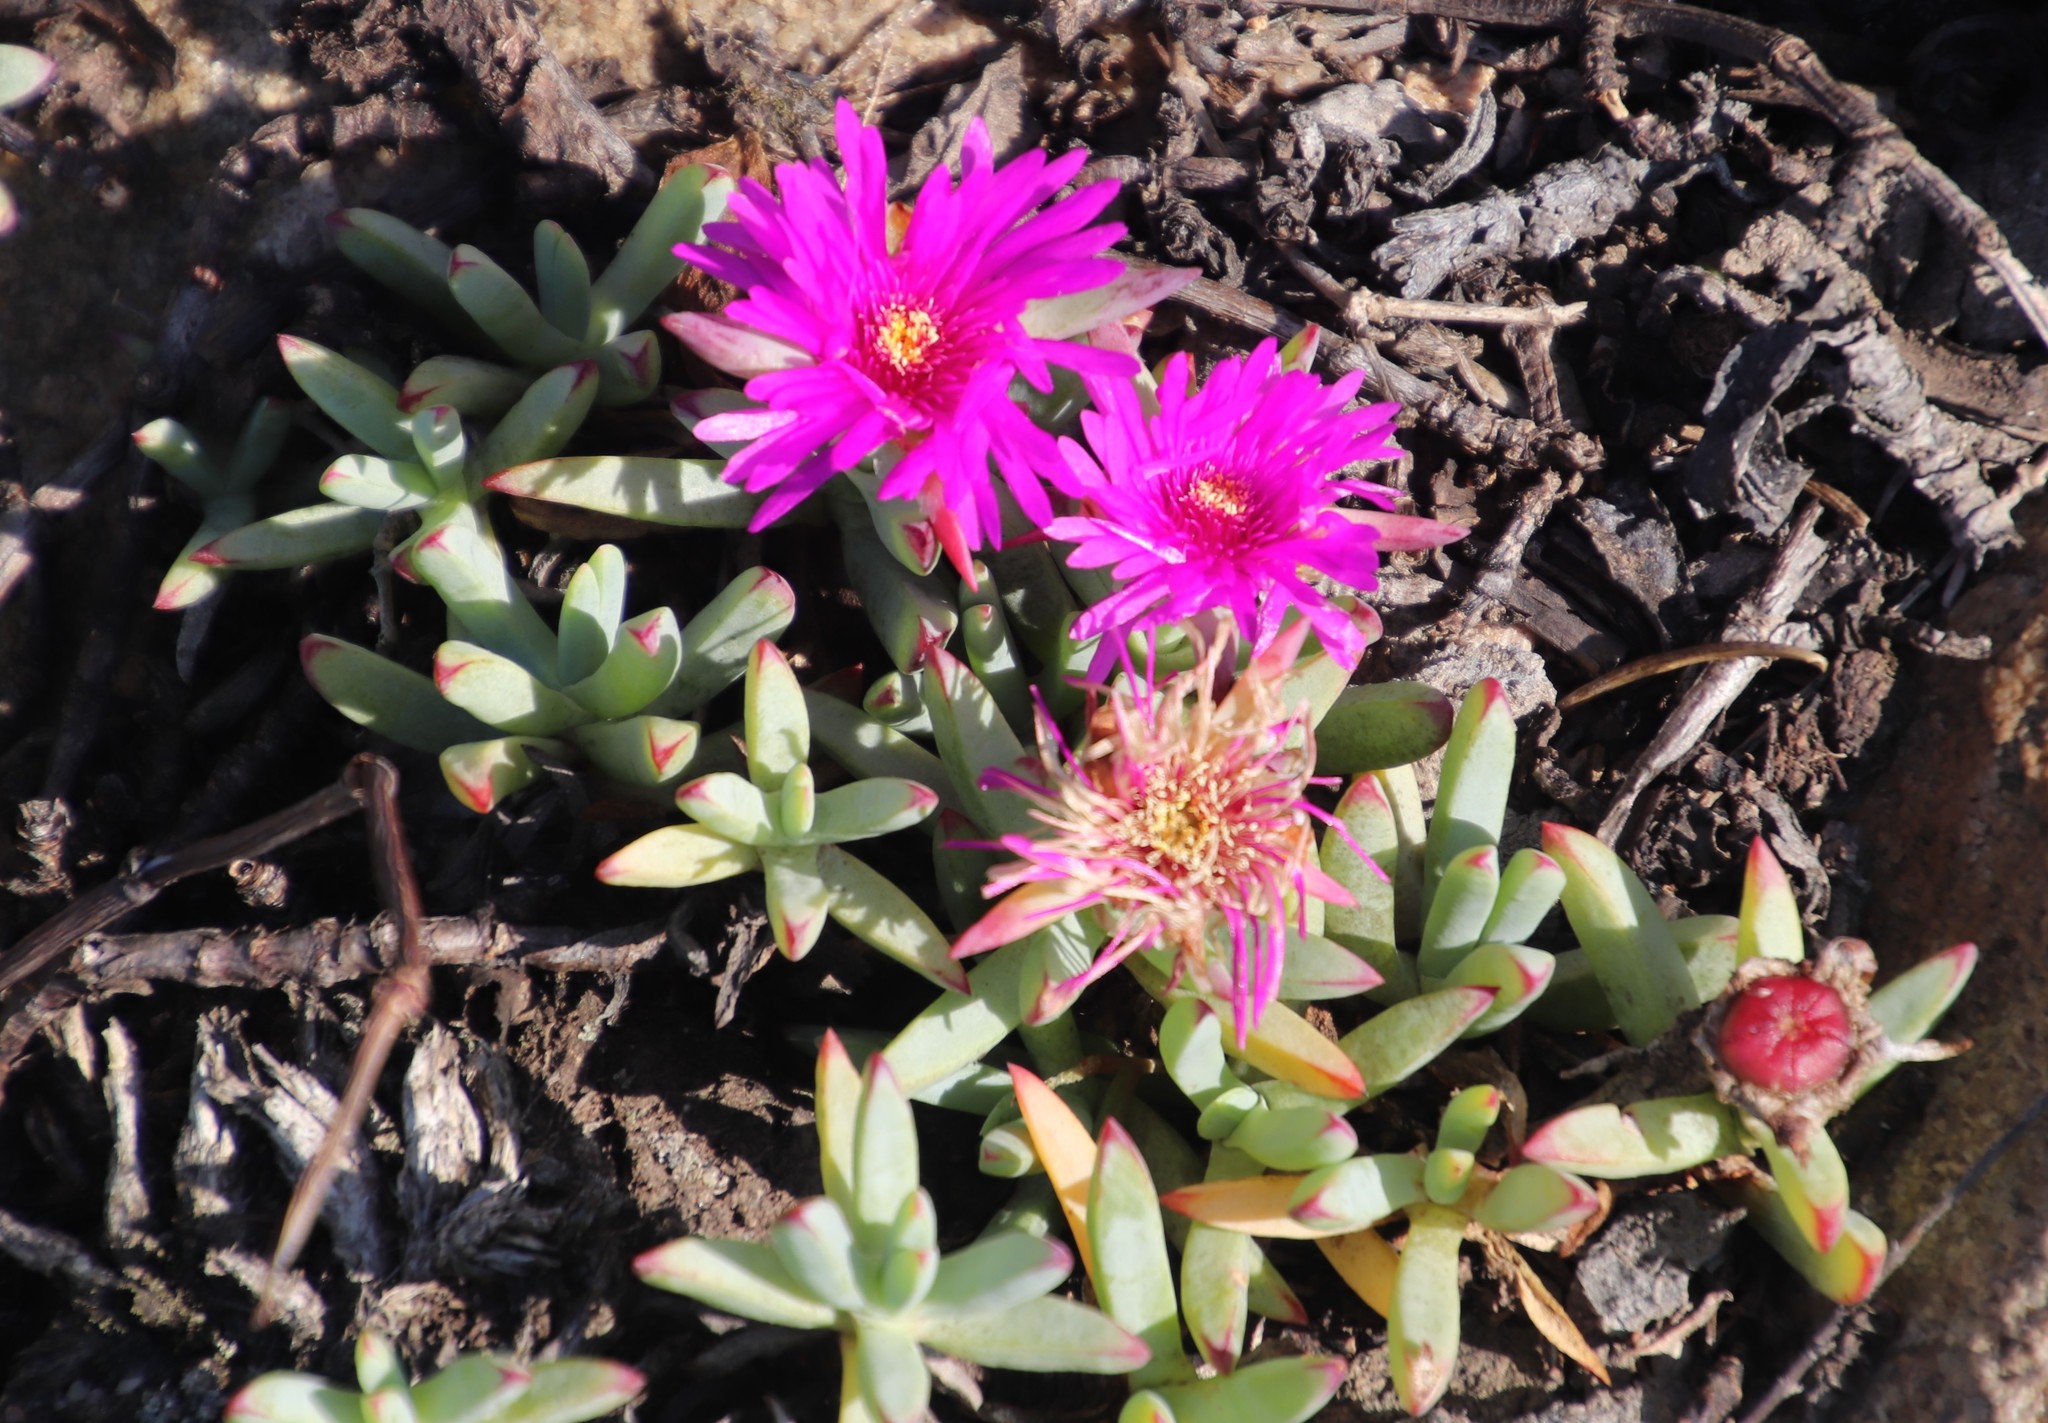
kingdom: Plantae
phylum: Tracheophyta
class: Magnoliopsida
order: Caryophyllales
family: Aizoaceae
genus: Lampranthus
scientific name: Lampranthus fugitans
